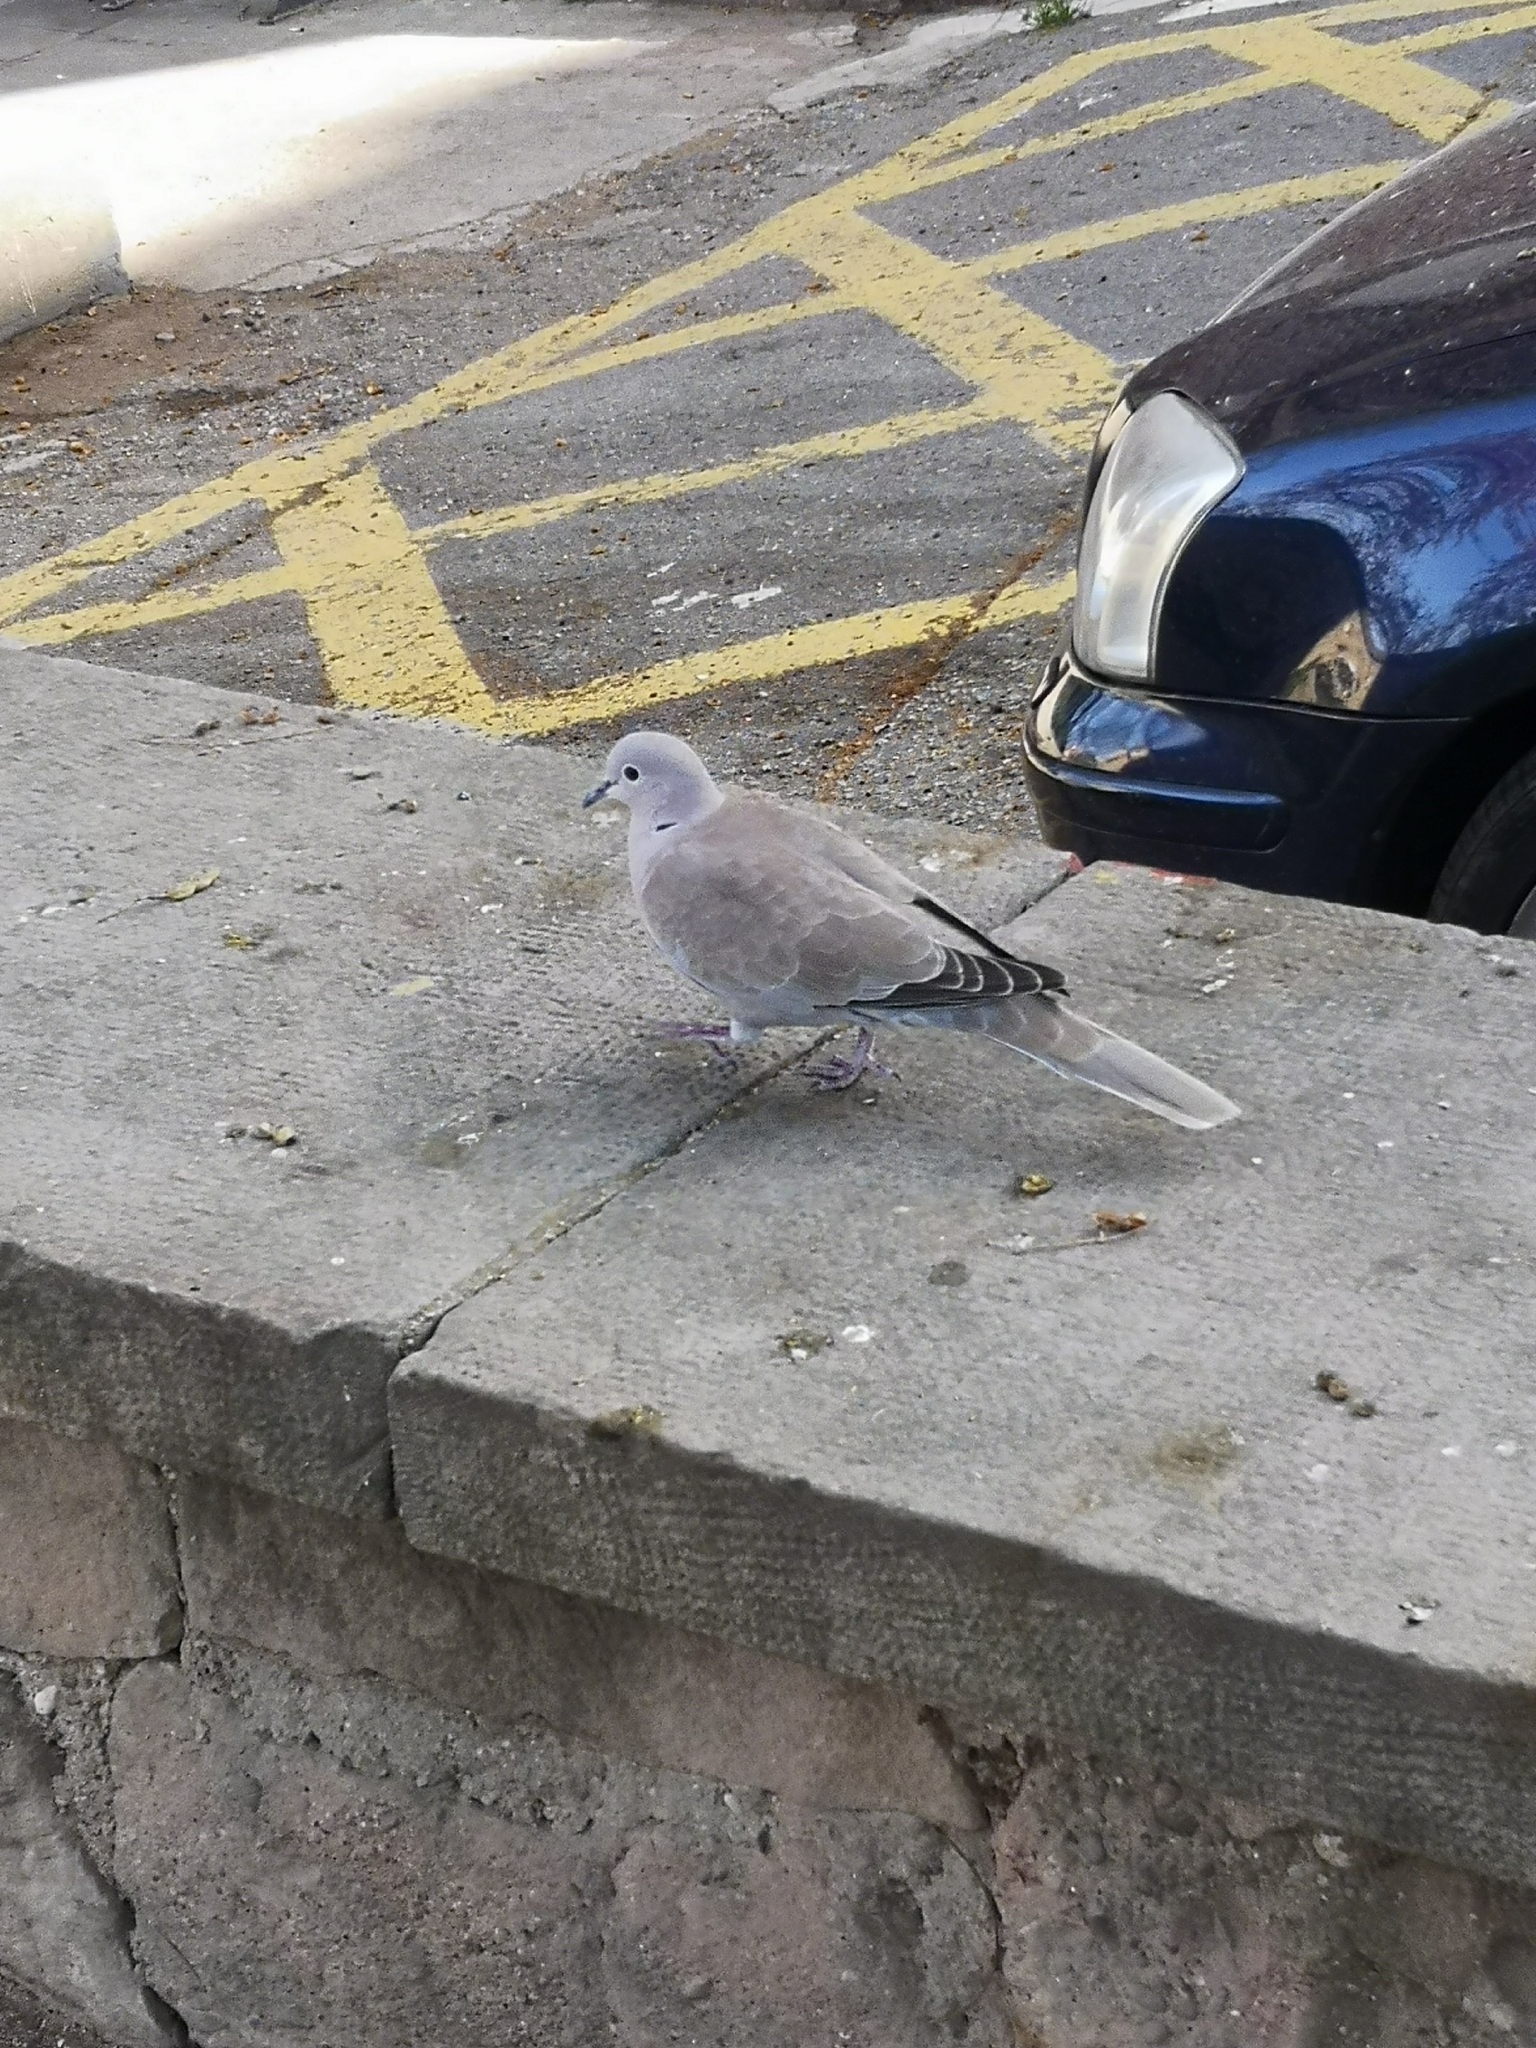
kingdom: Animalia
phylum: Chordata
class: Aves
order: Columbiformes
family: Columbidae
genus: Streptopelia
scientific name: Streptopelia decaocto
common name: Eurasian collared dove
